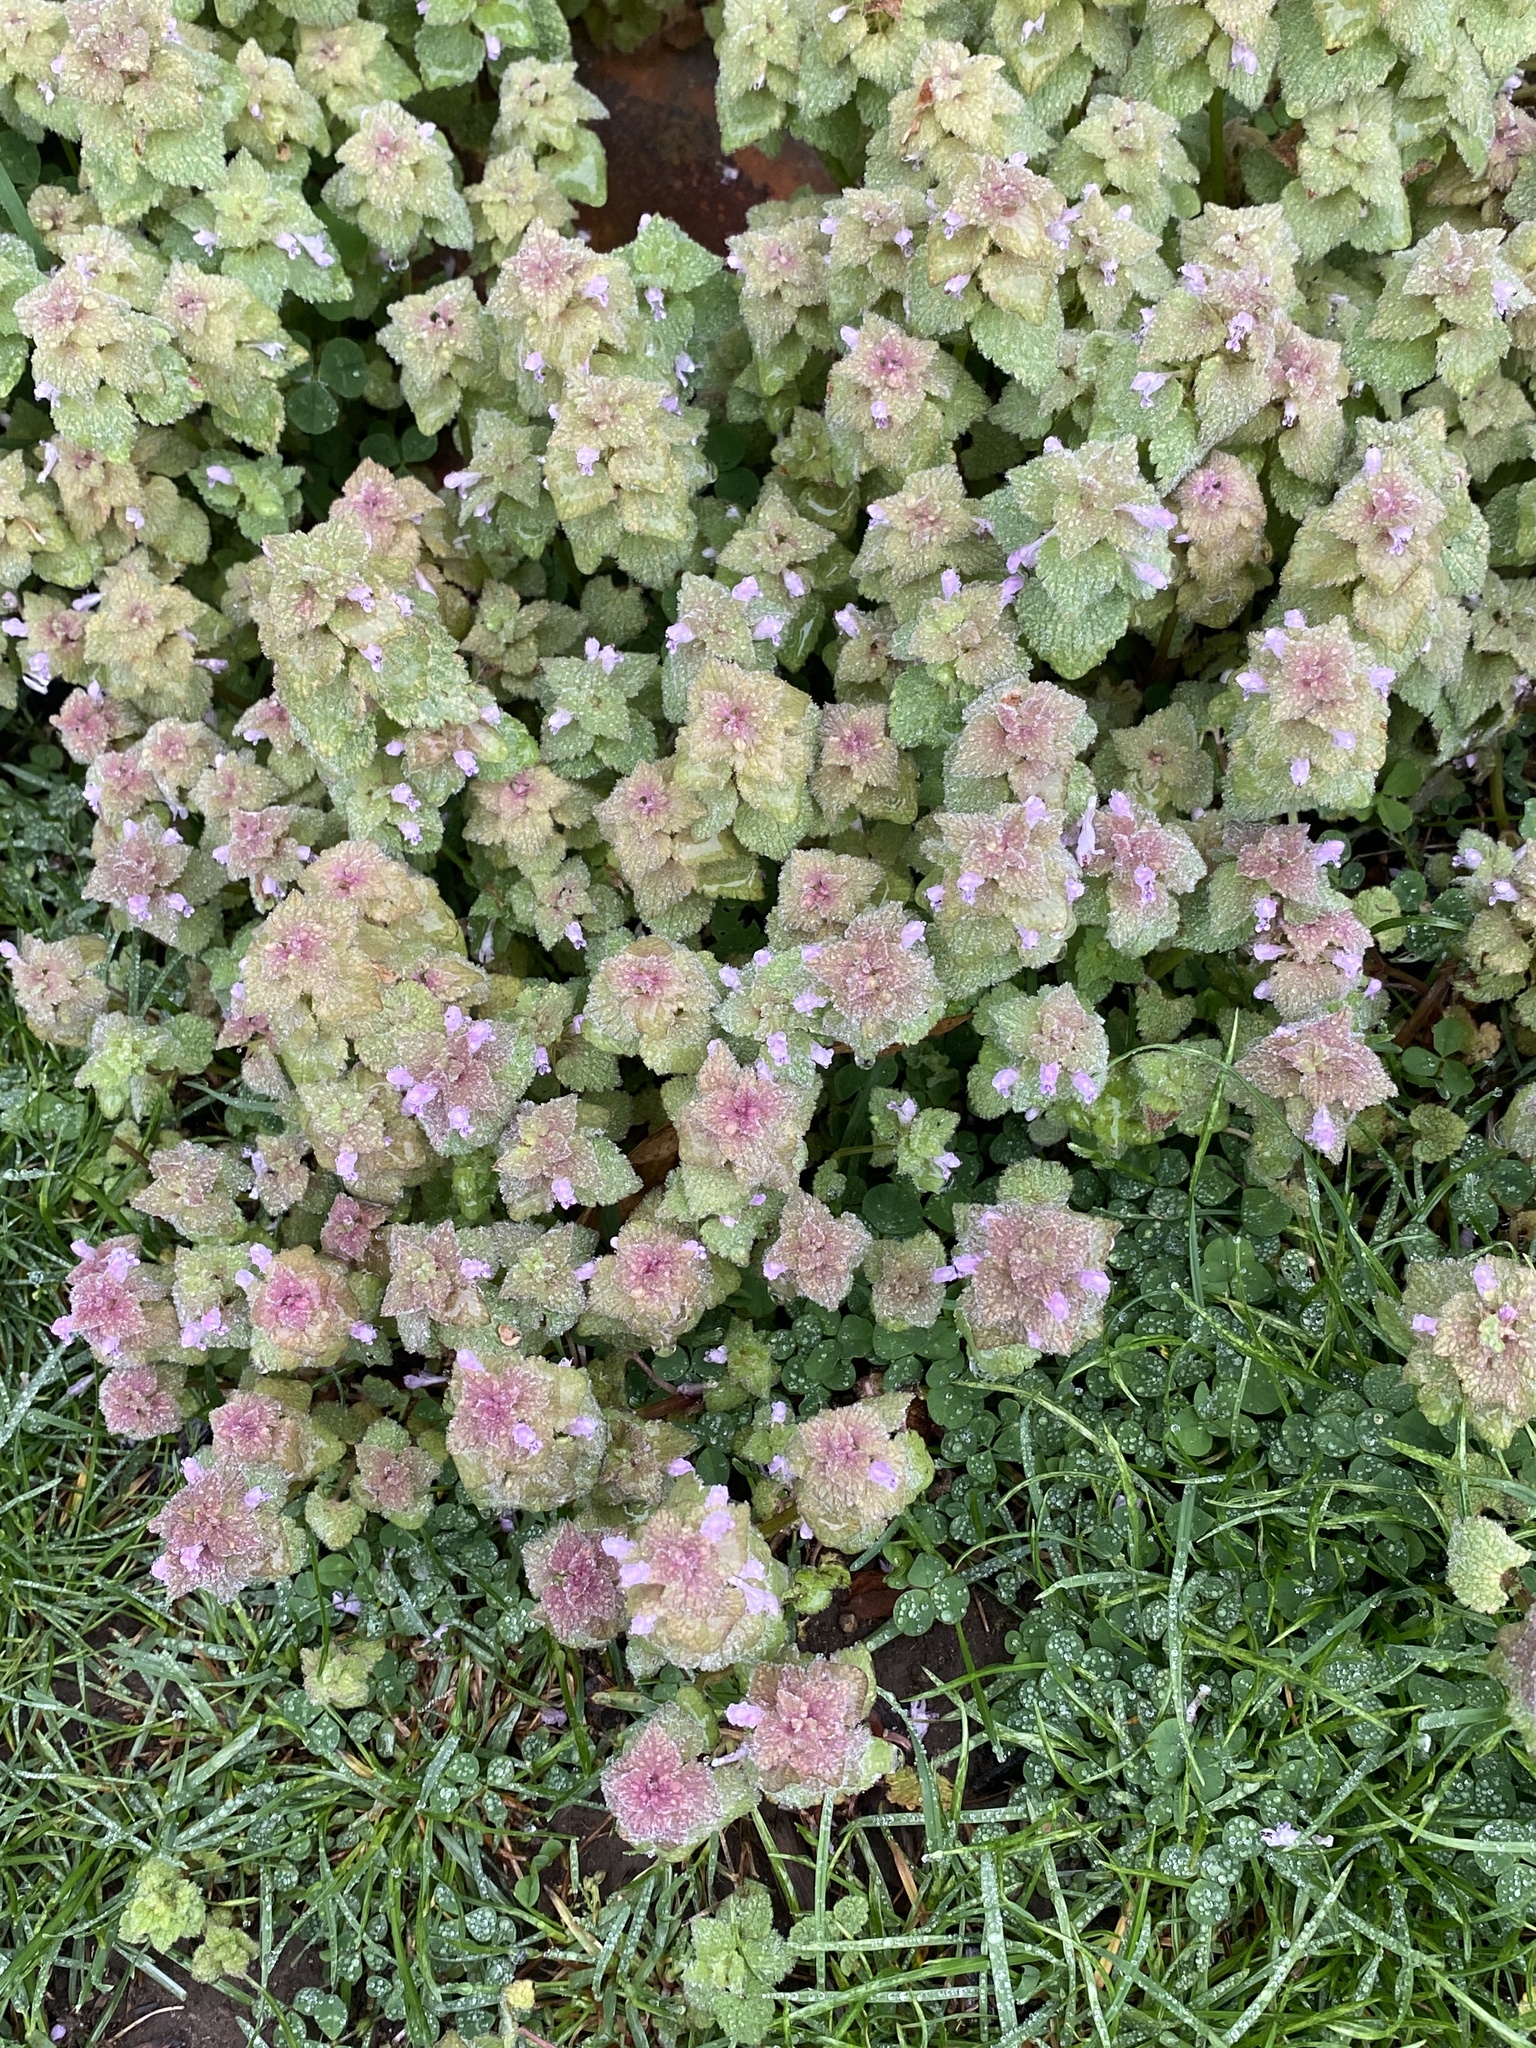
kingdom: Plantae
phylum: Tracheophyta
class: Magnoliopsida
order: Lamiales
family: Lamiaceae
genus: Lamium
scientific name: Lamium purpureum
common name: Red dead-nettle
